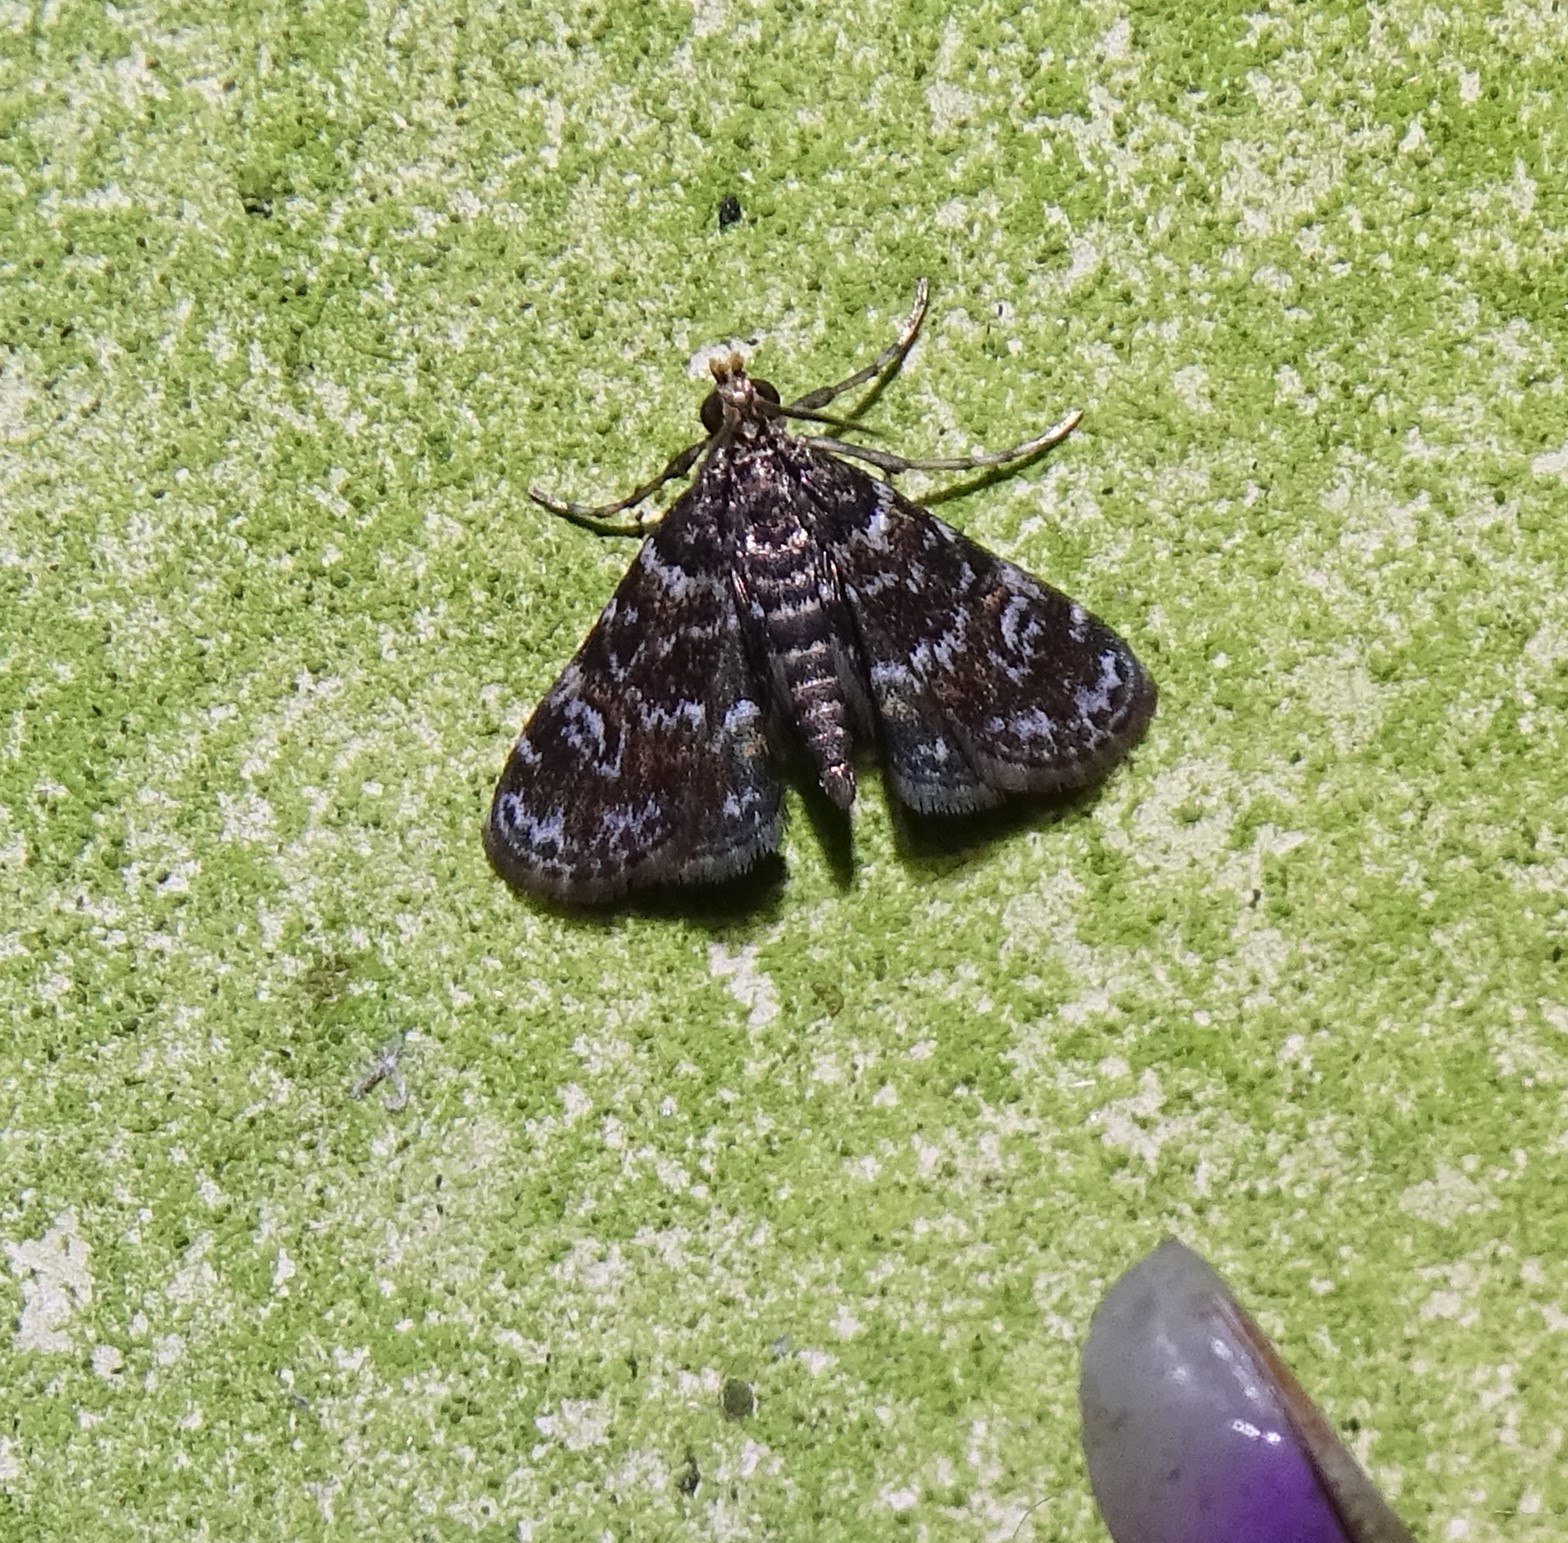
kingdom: Animalia
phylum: Arthropoda
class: Insecta
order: Lepidoptera
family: Crambidae
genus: Elophila
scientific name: Elophila obliteralis
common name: Waterlily leafcutter moth
